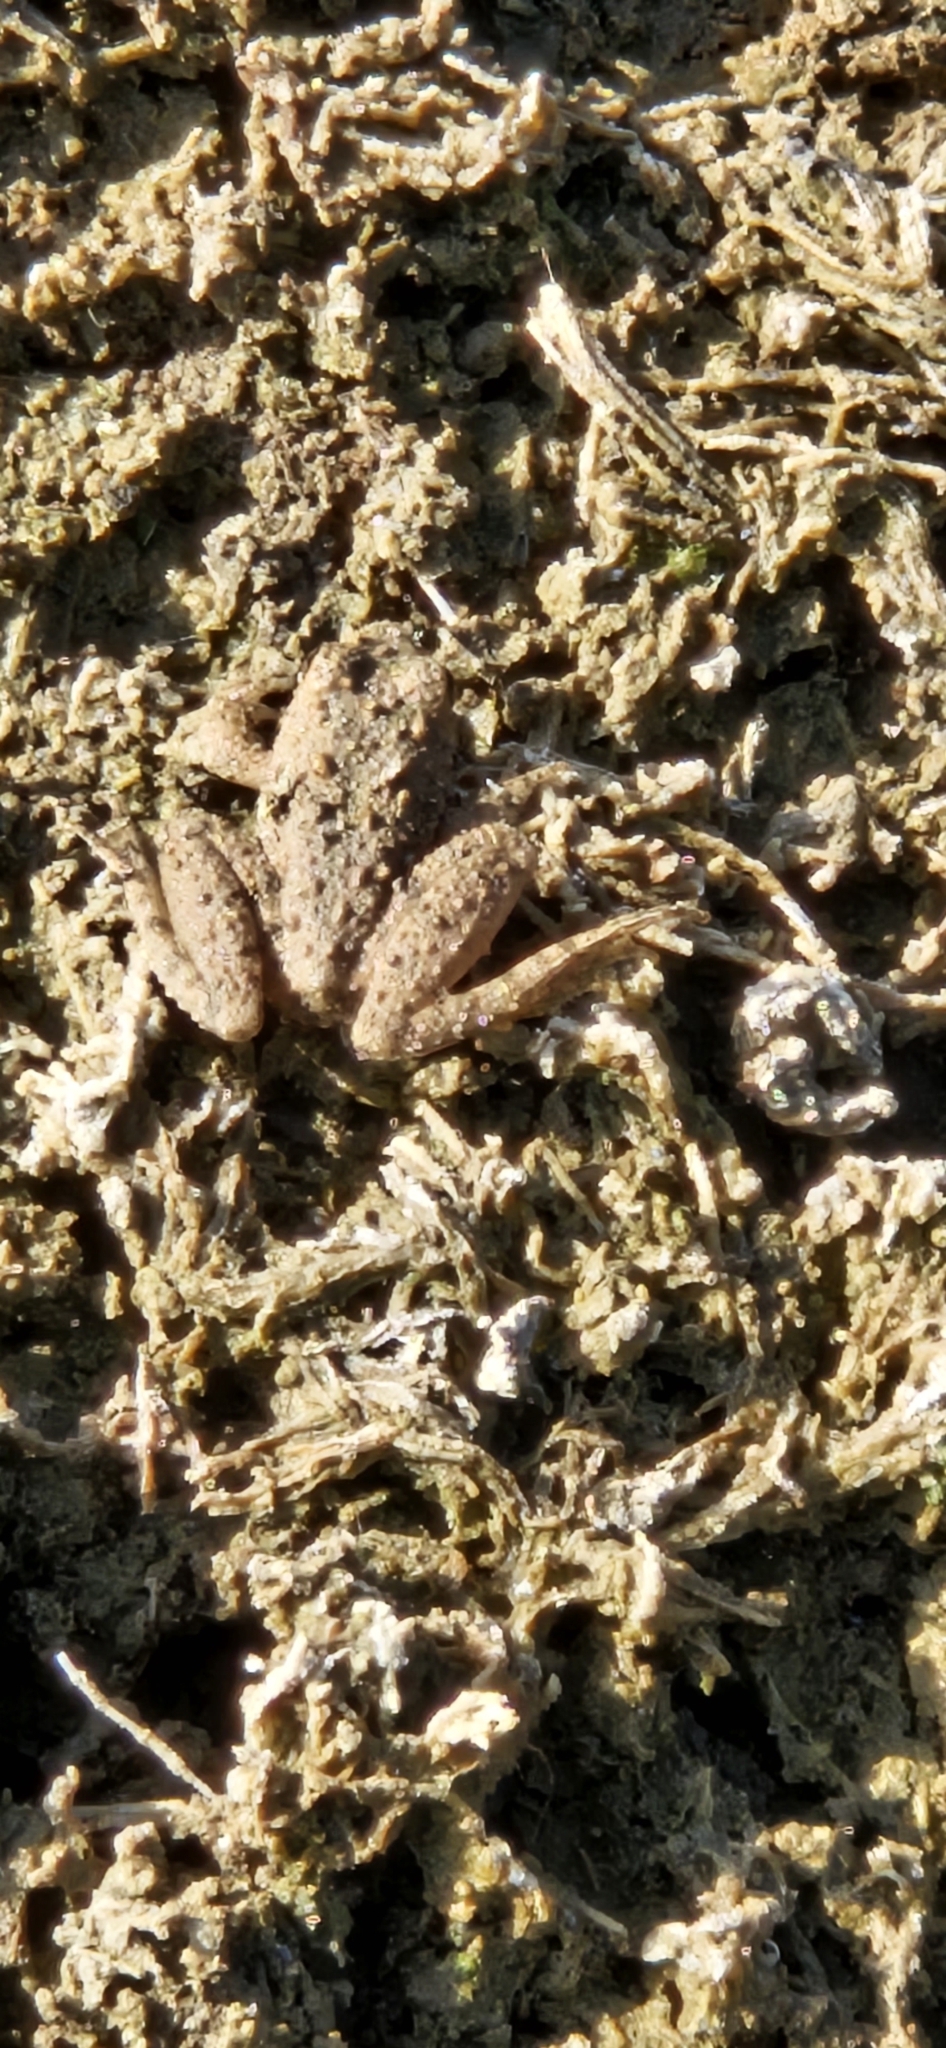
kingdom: Animalia
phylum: Chordata
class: Amphibia
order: Anura
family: Hylidae
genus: Acris
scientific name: Acris blanchardi
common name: Blanchard's cricket frog
